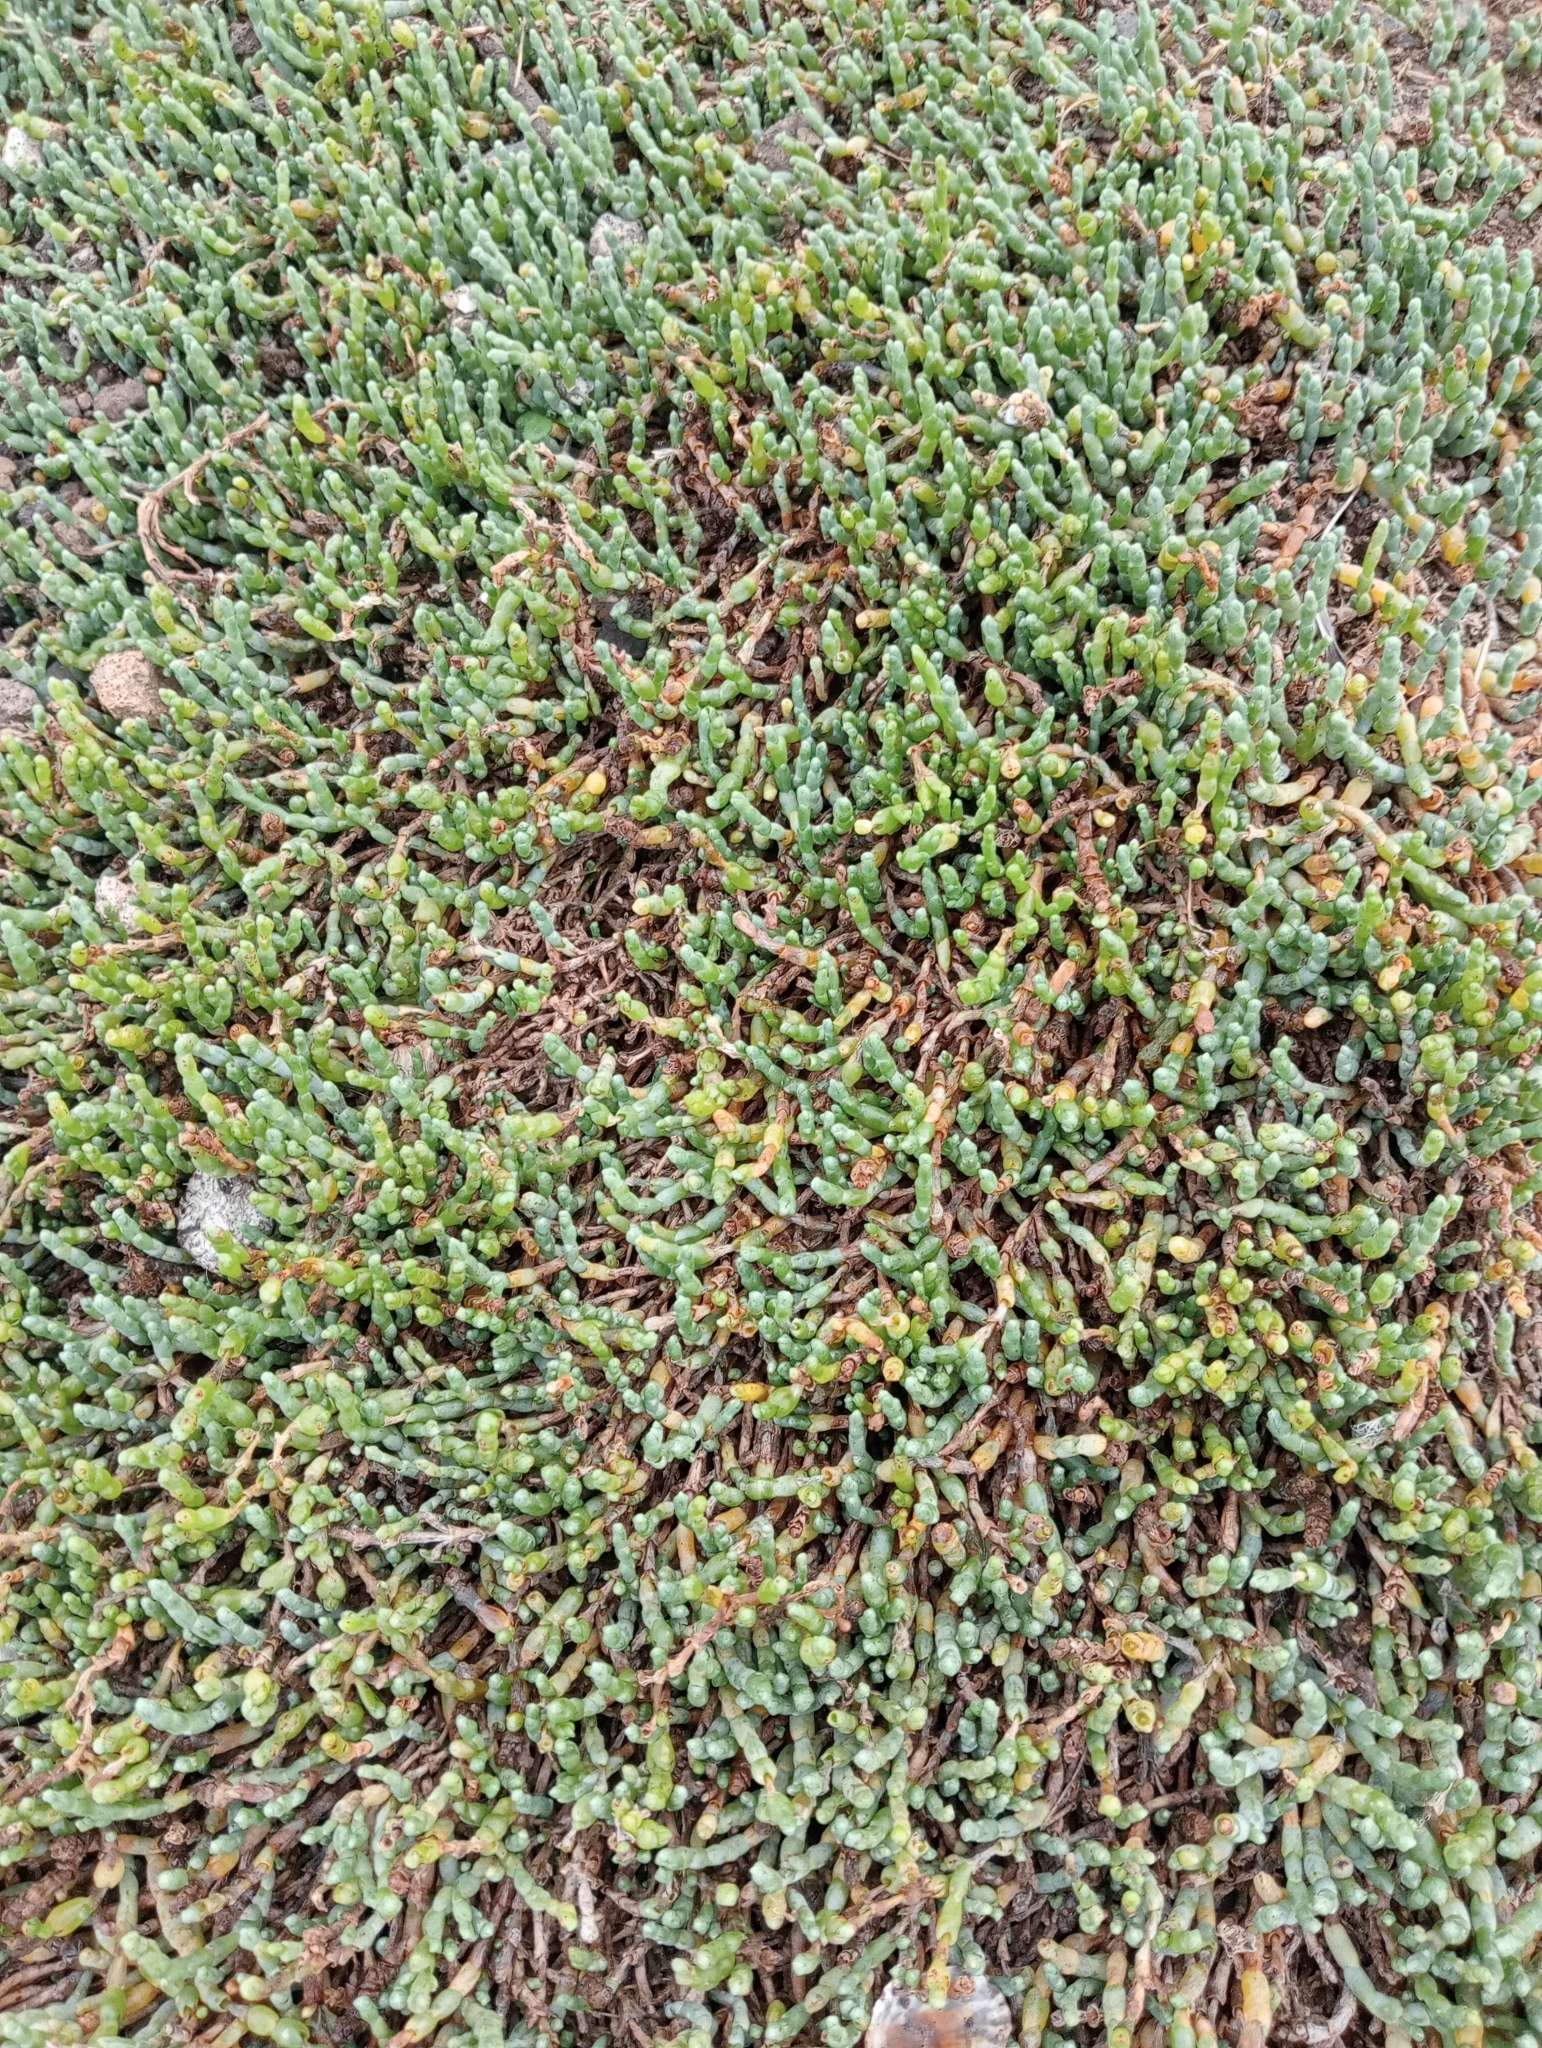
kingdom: Plantae
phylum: Tracheophyta
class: Magnoliopsida
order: Caryophyllales
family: Amaranthaceae
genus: Salicornia
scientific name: Salicornia quinqueflora
